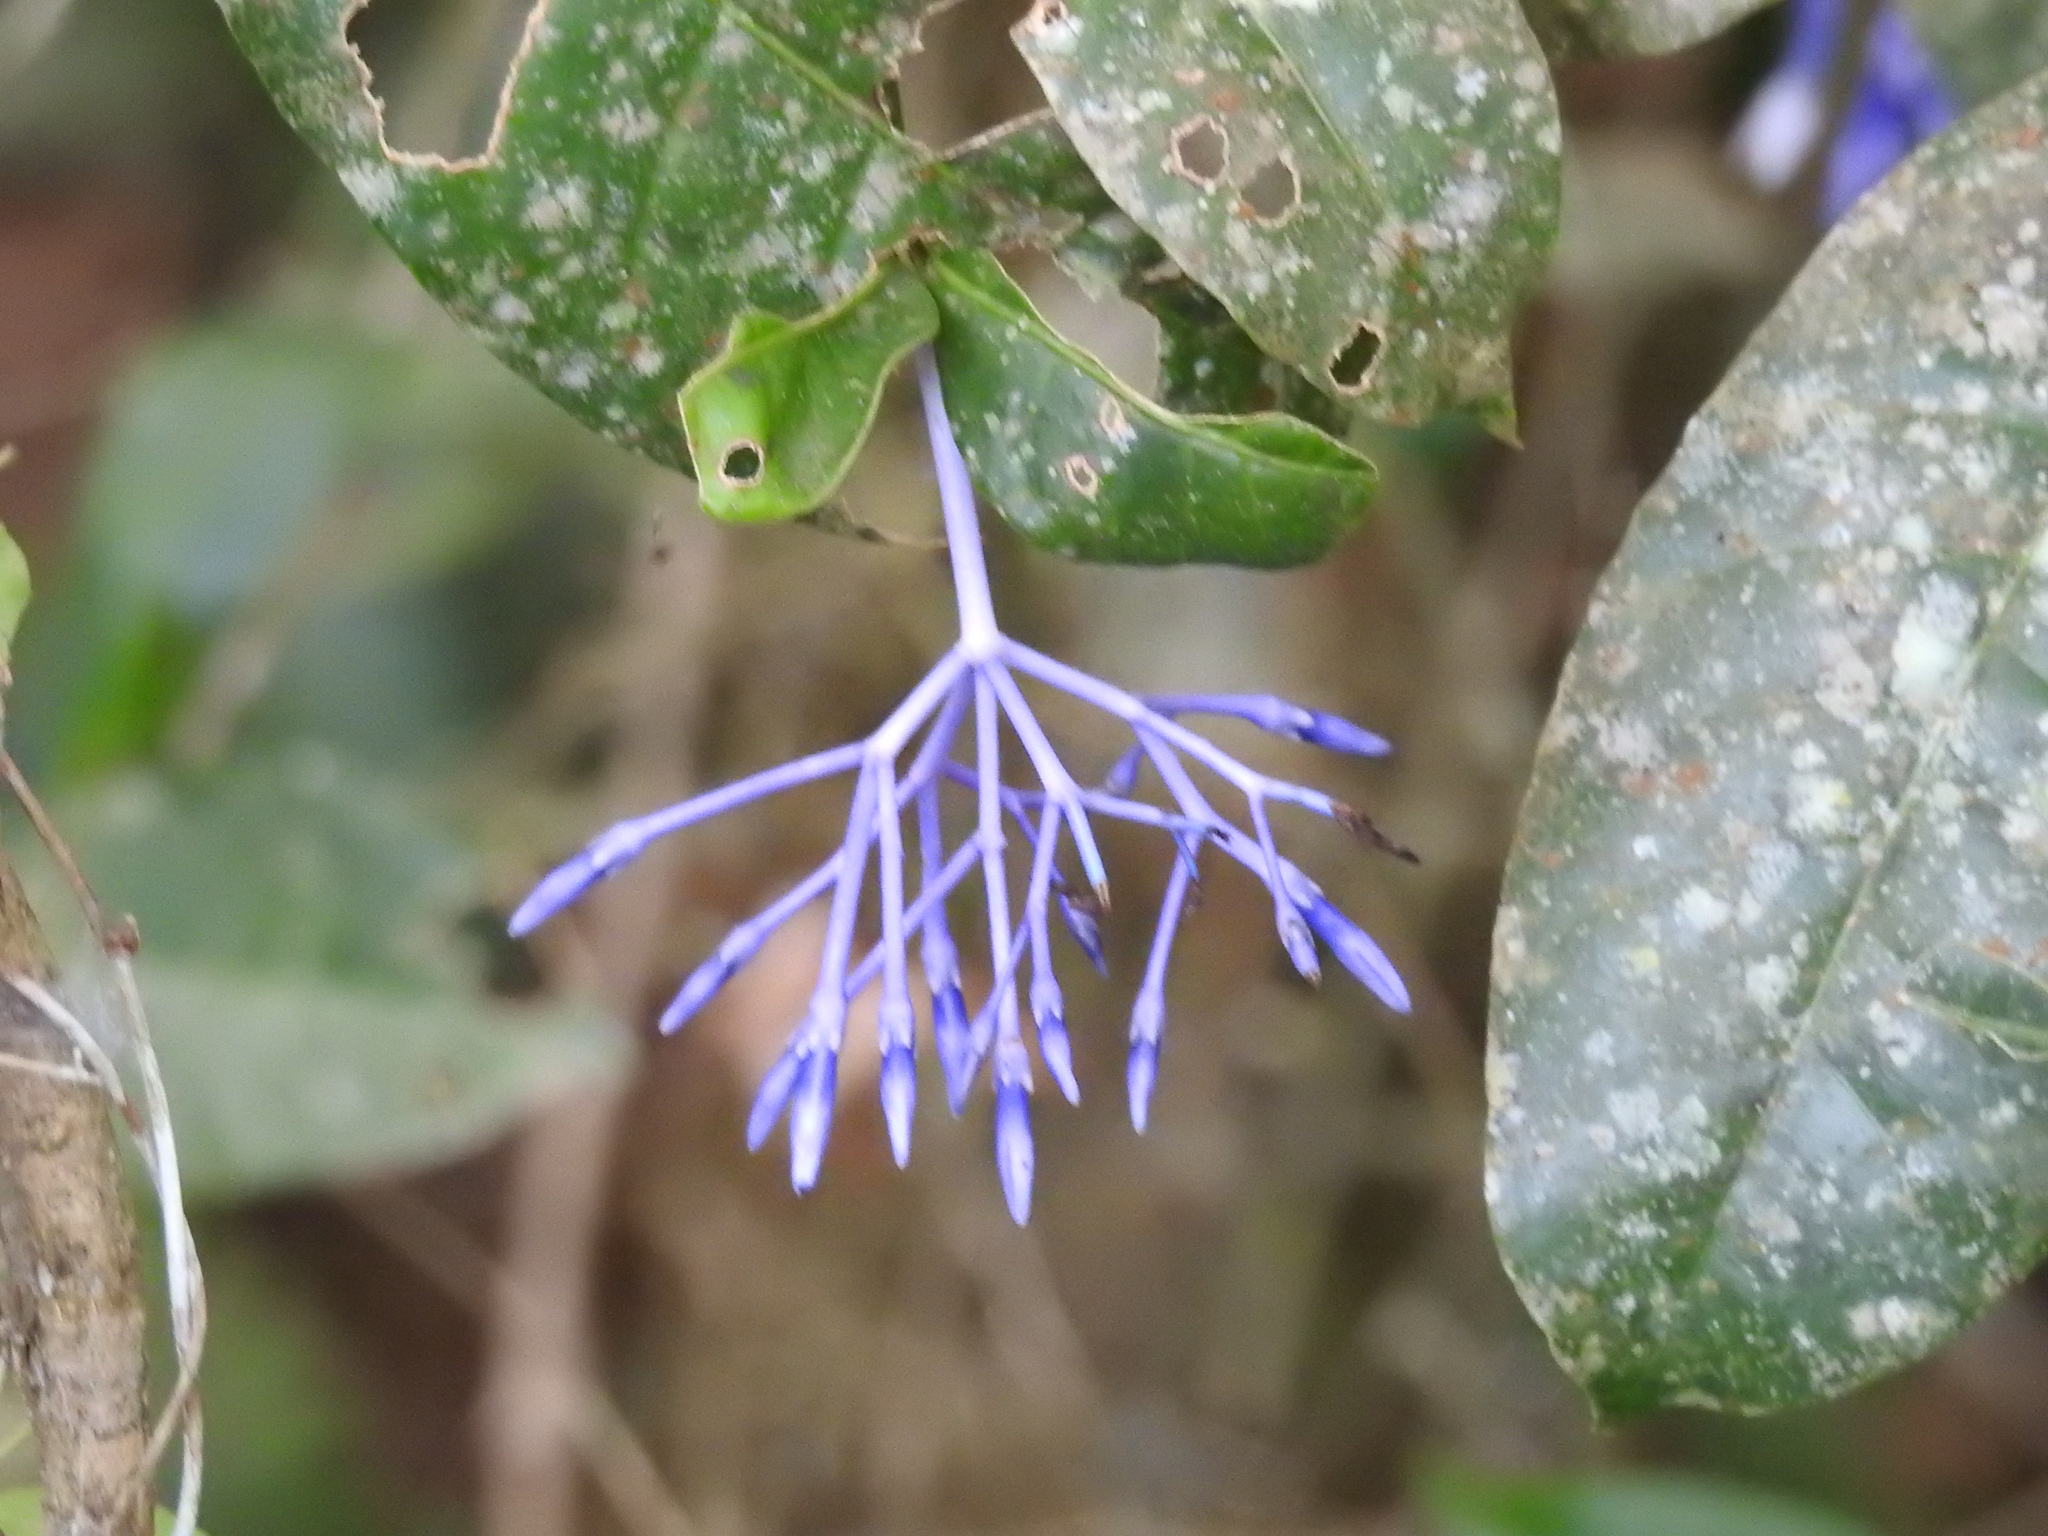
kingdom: Plantae
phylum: Tracheophyta
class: Magnoliopsida
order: Gentianales
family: Rubiaceae
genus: Faramea
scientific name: Faramea hyacinthina
